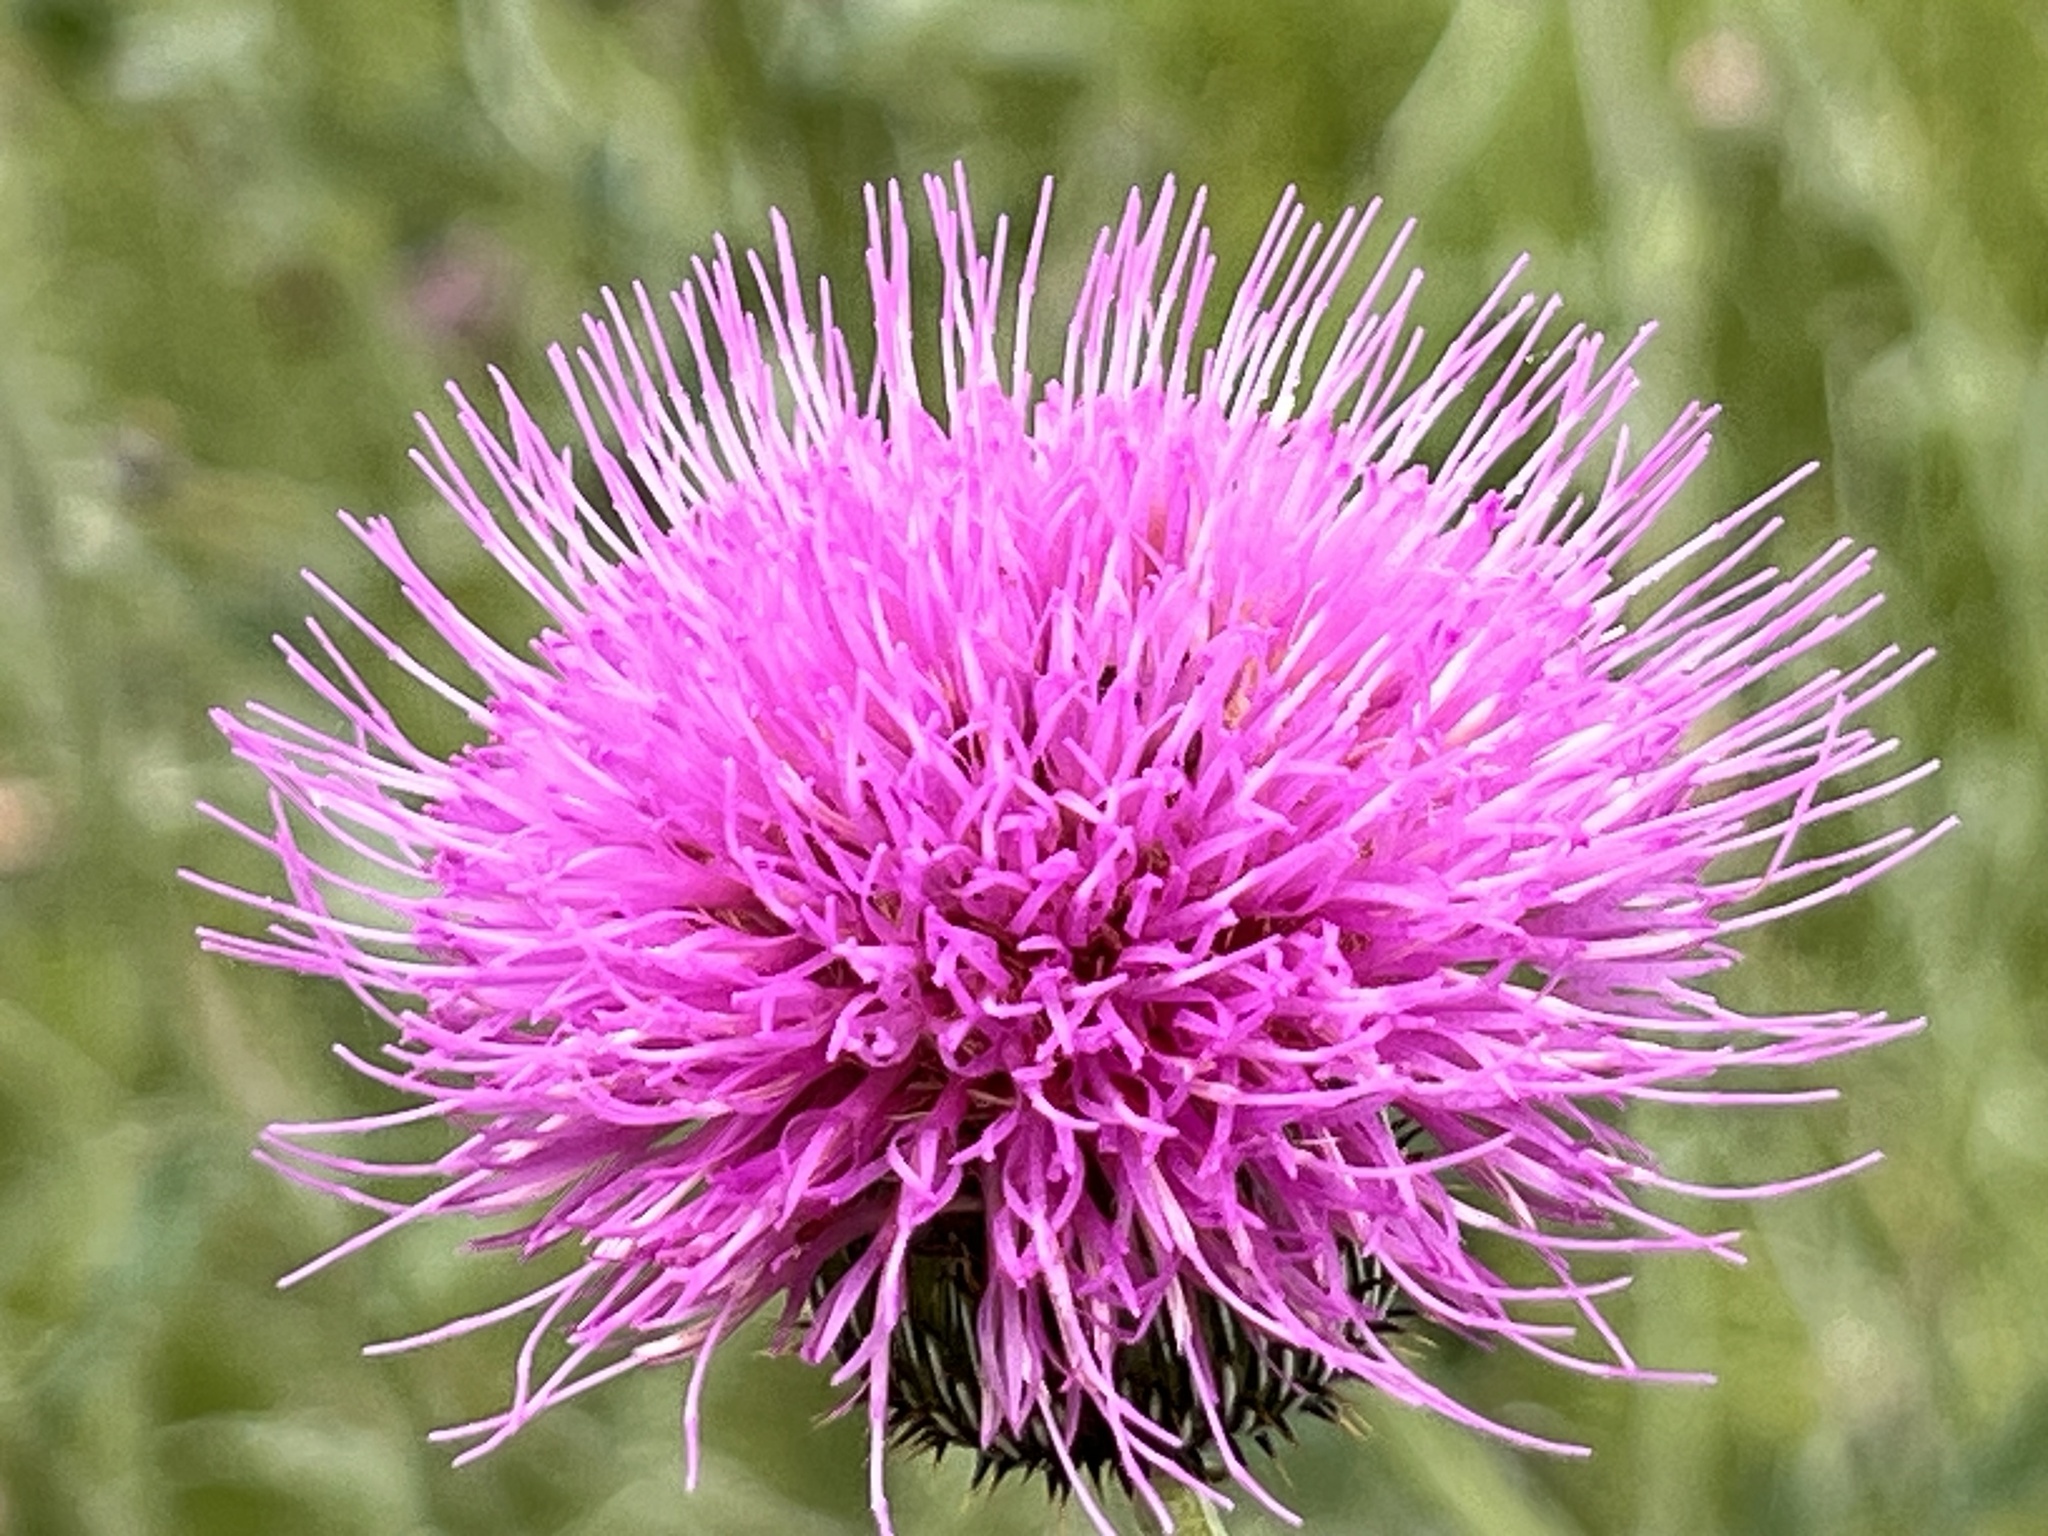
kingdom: Plantae
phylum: Tracheophyta
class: Magnoliopsida
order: Asterales
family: Asteraceae
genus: Cirsium
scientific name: Cirsium texanum
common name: Texas purple thistle
